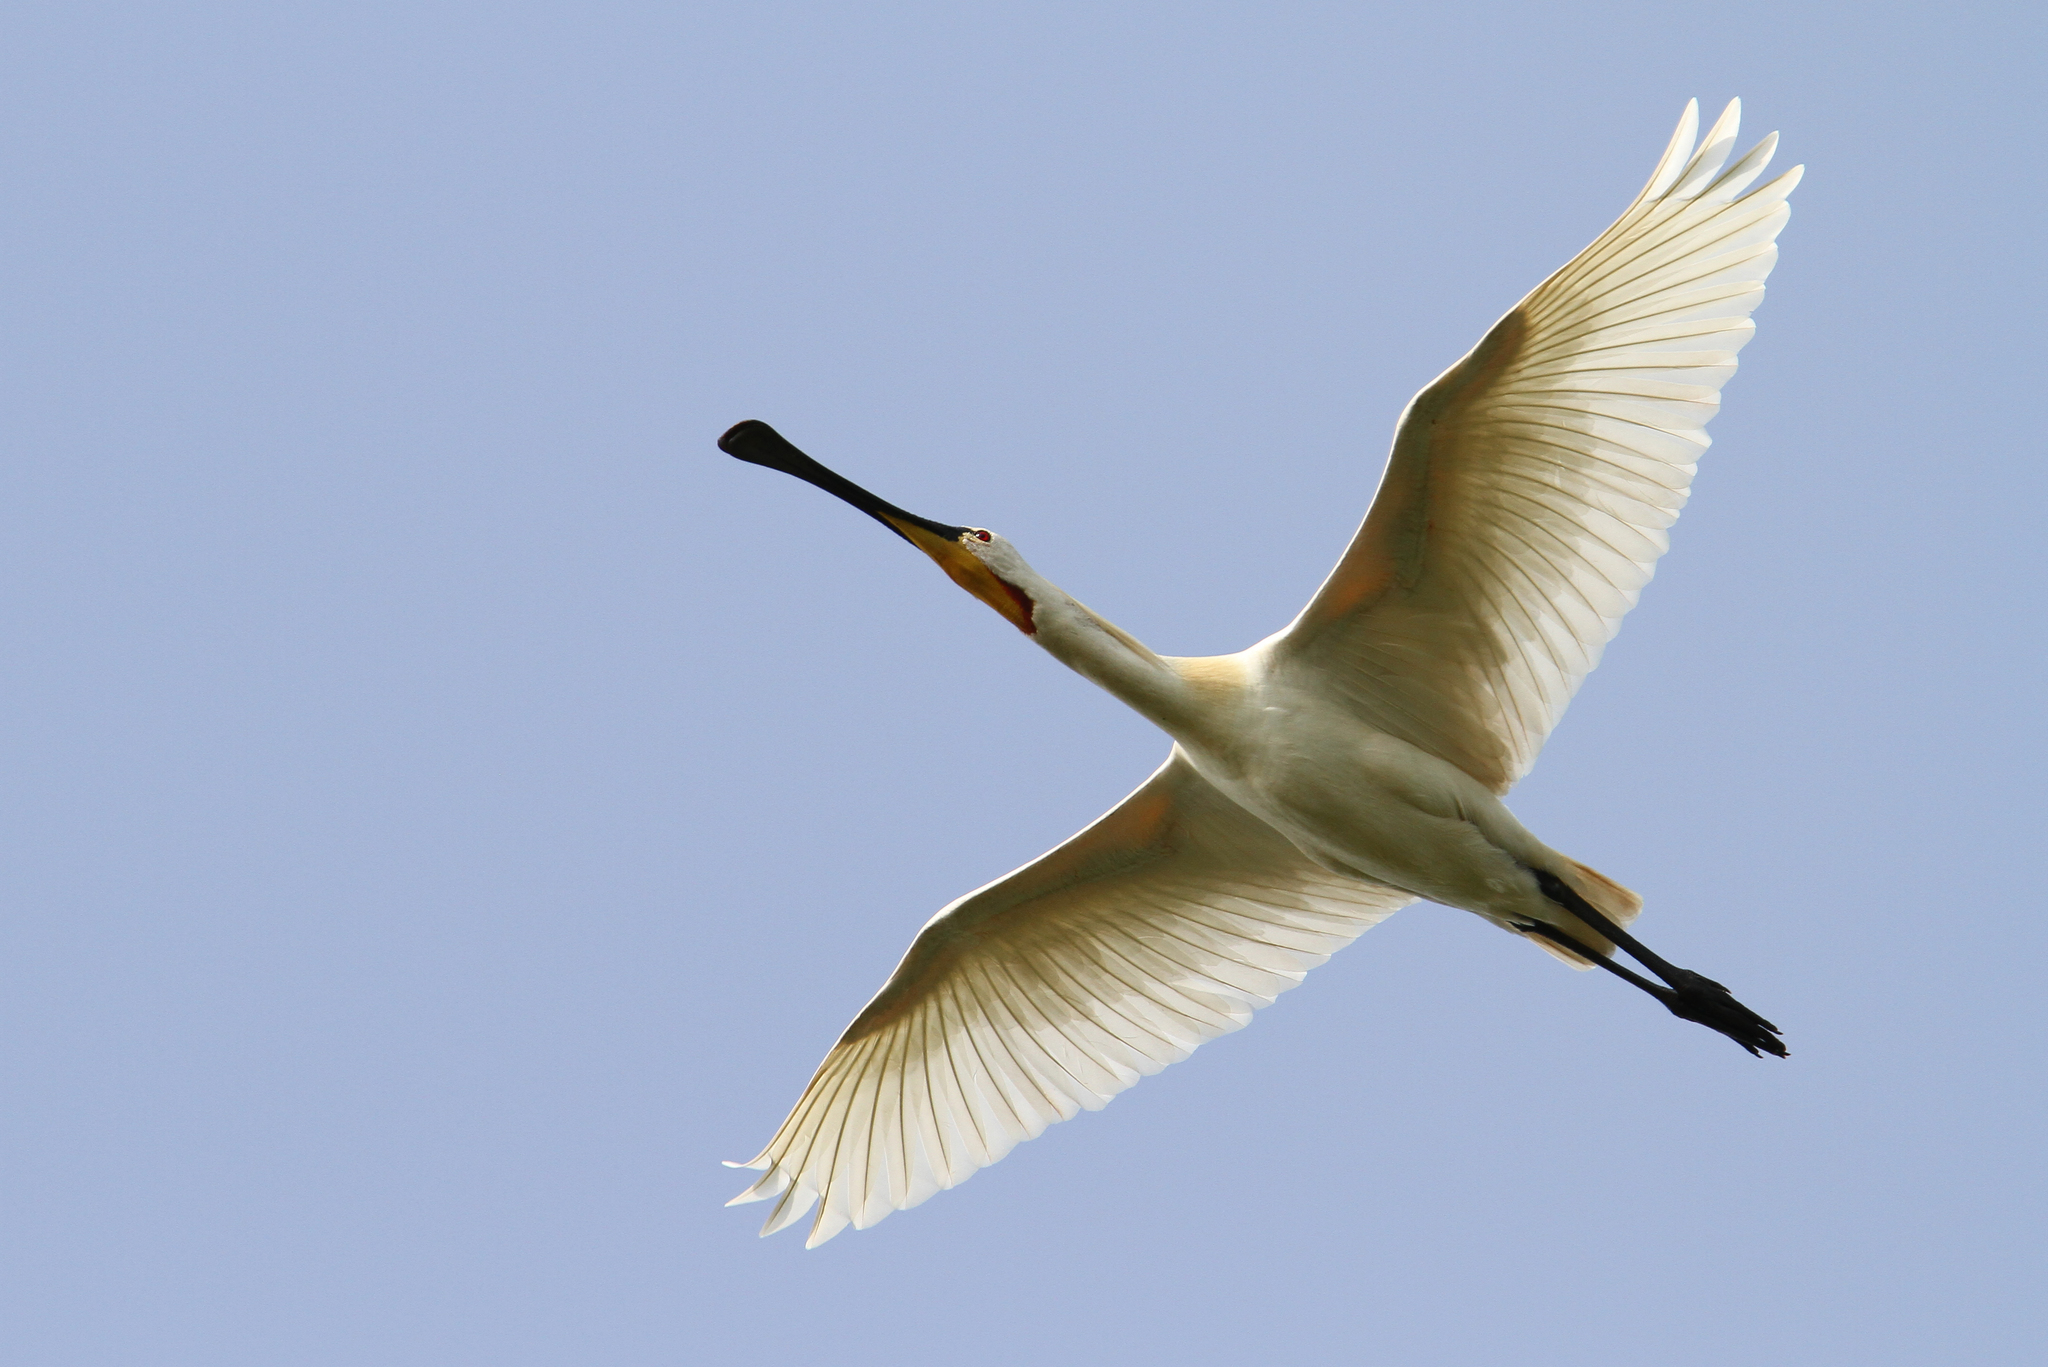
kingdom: Animalia
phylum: Chordata
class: Aves
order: Pelecaniformes
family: Threskiornithidae
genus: Platalea
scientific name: Platalea leucorodia
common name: Eurasian spoonbill
